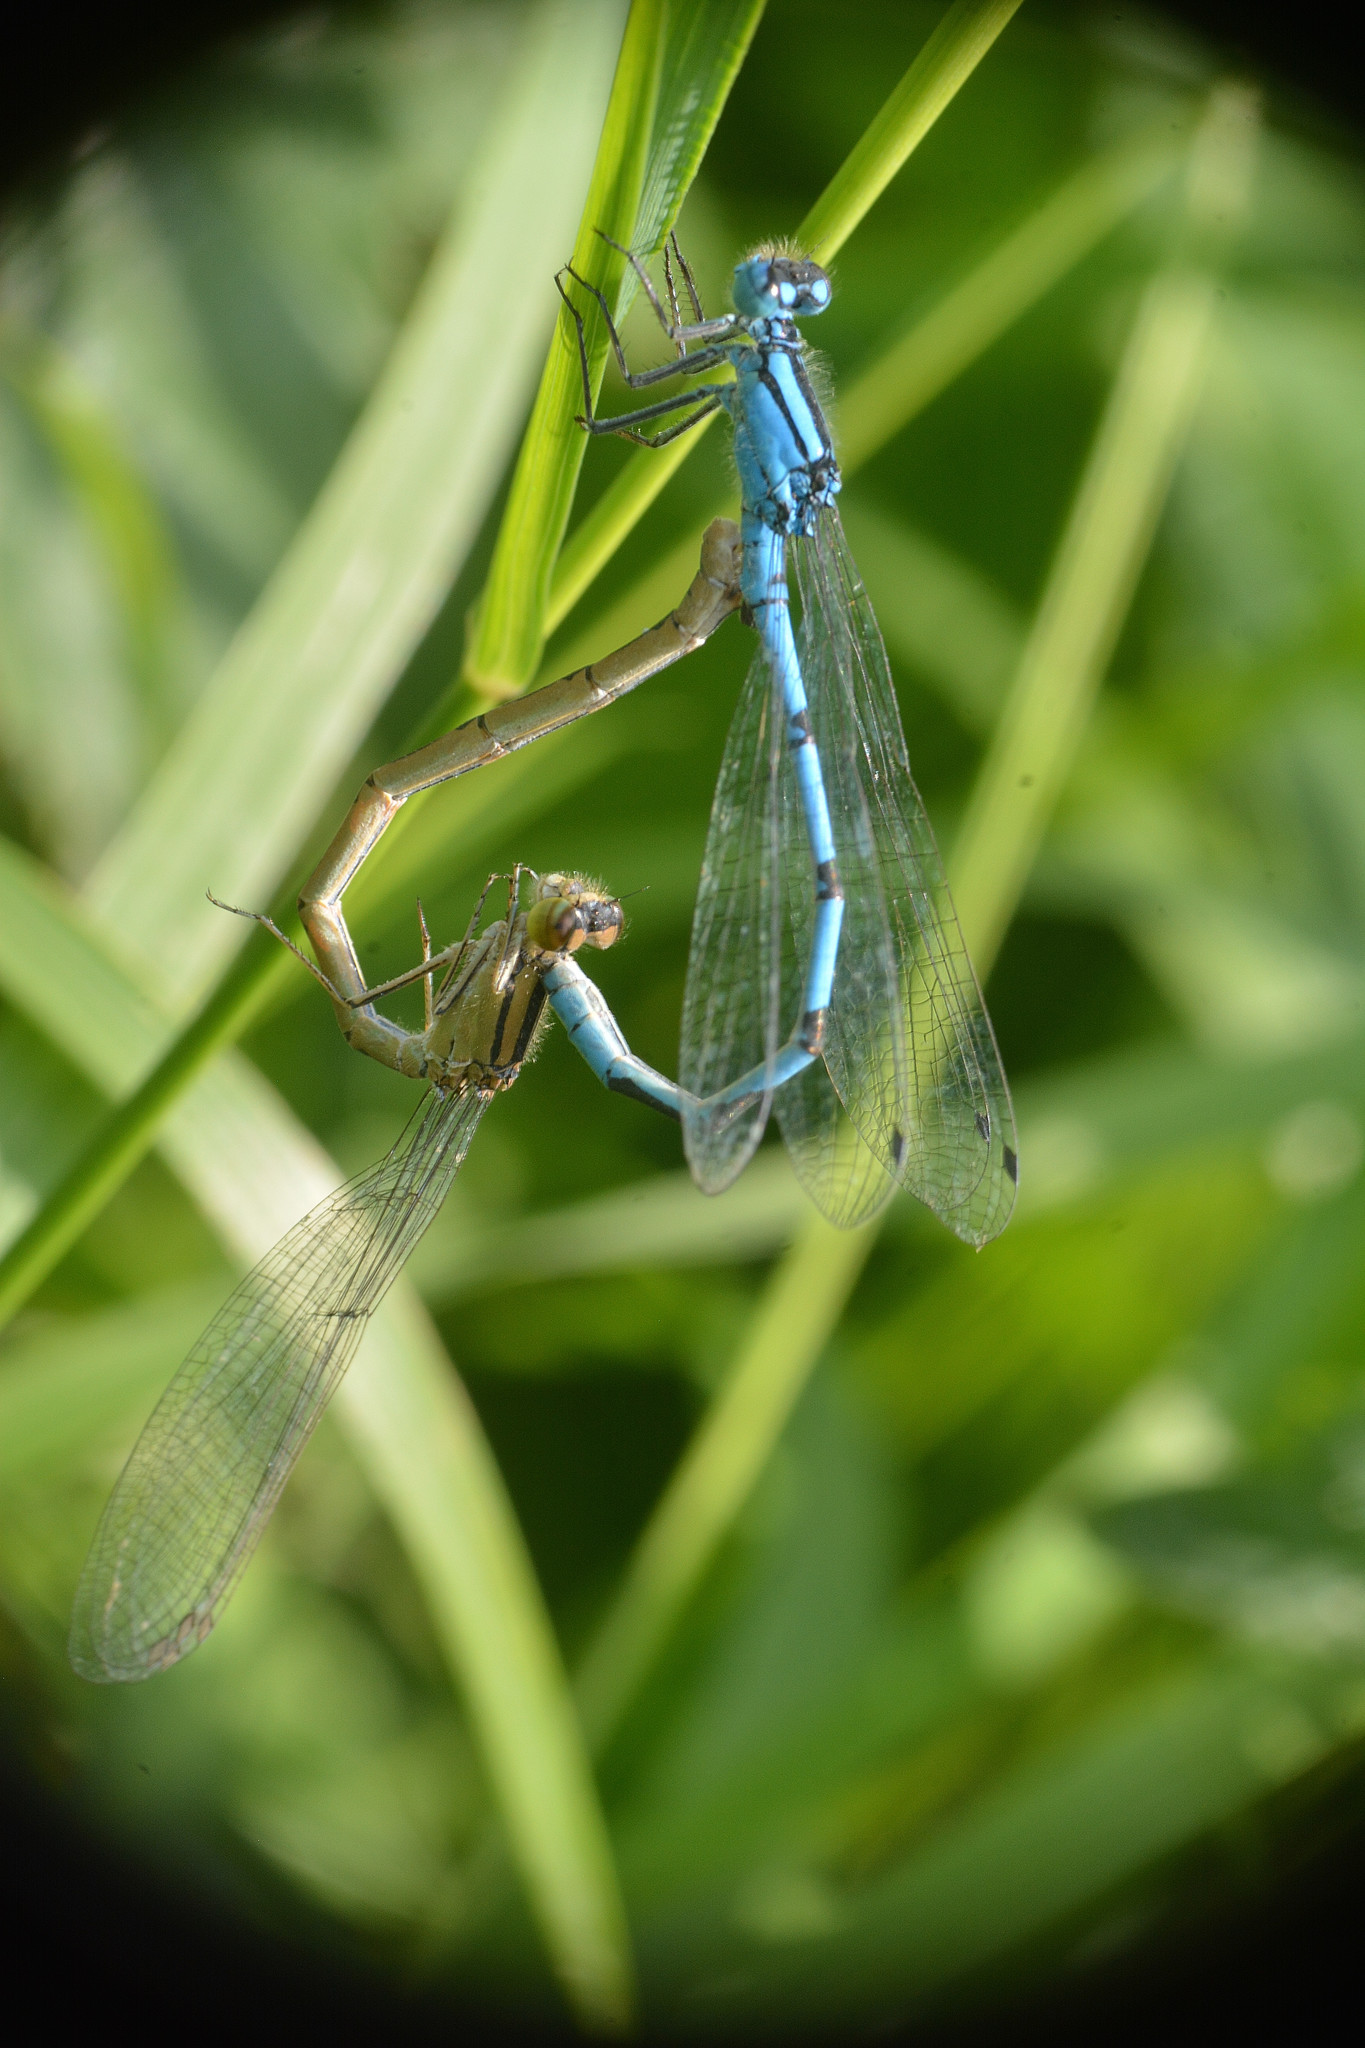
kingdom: Animalia
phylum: Arthropoda
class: Insecta
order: Odonata
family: Coenagrionidae
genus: Enallagma
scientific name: Enallagma cyathigerum
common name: Common blue damselfly
